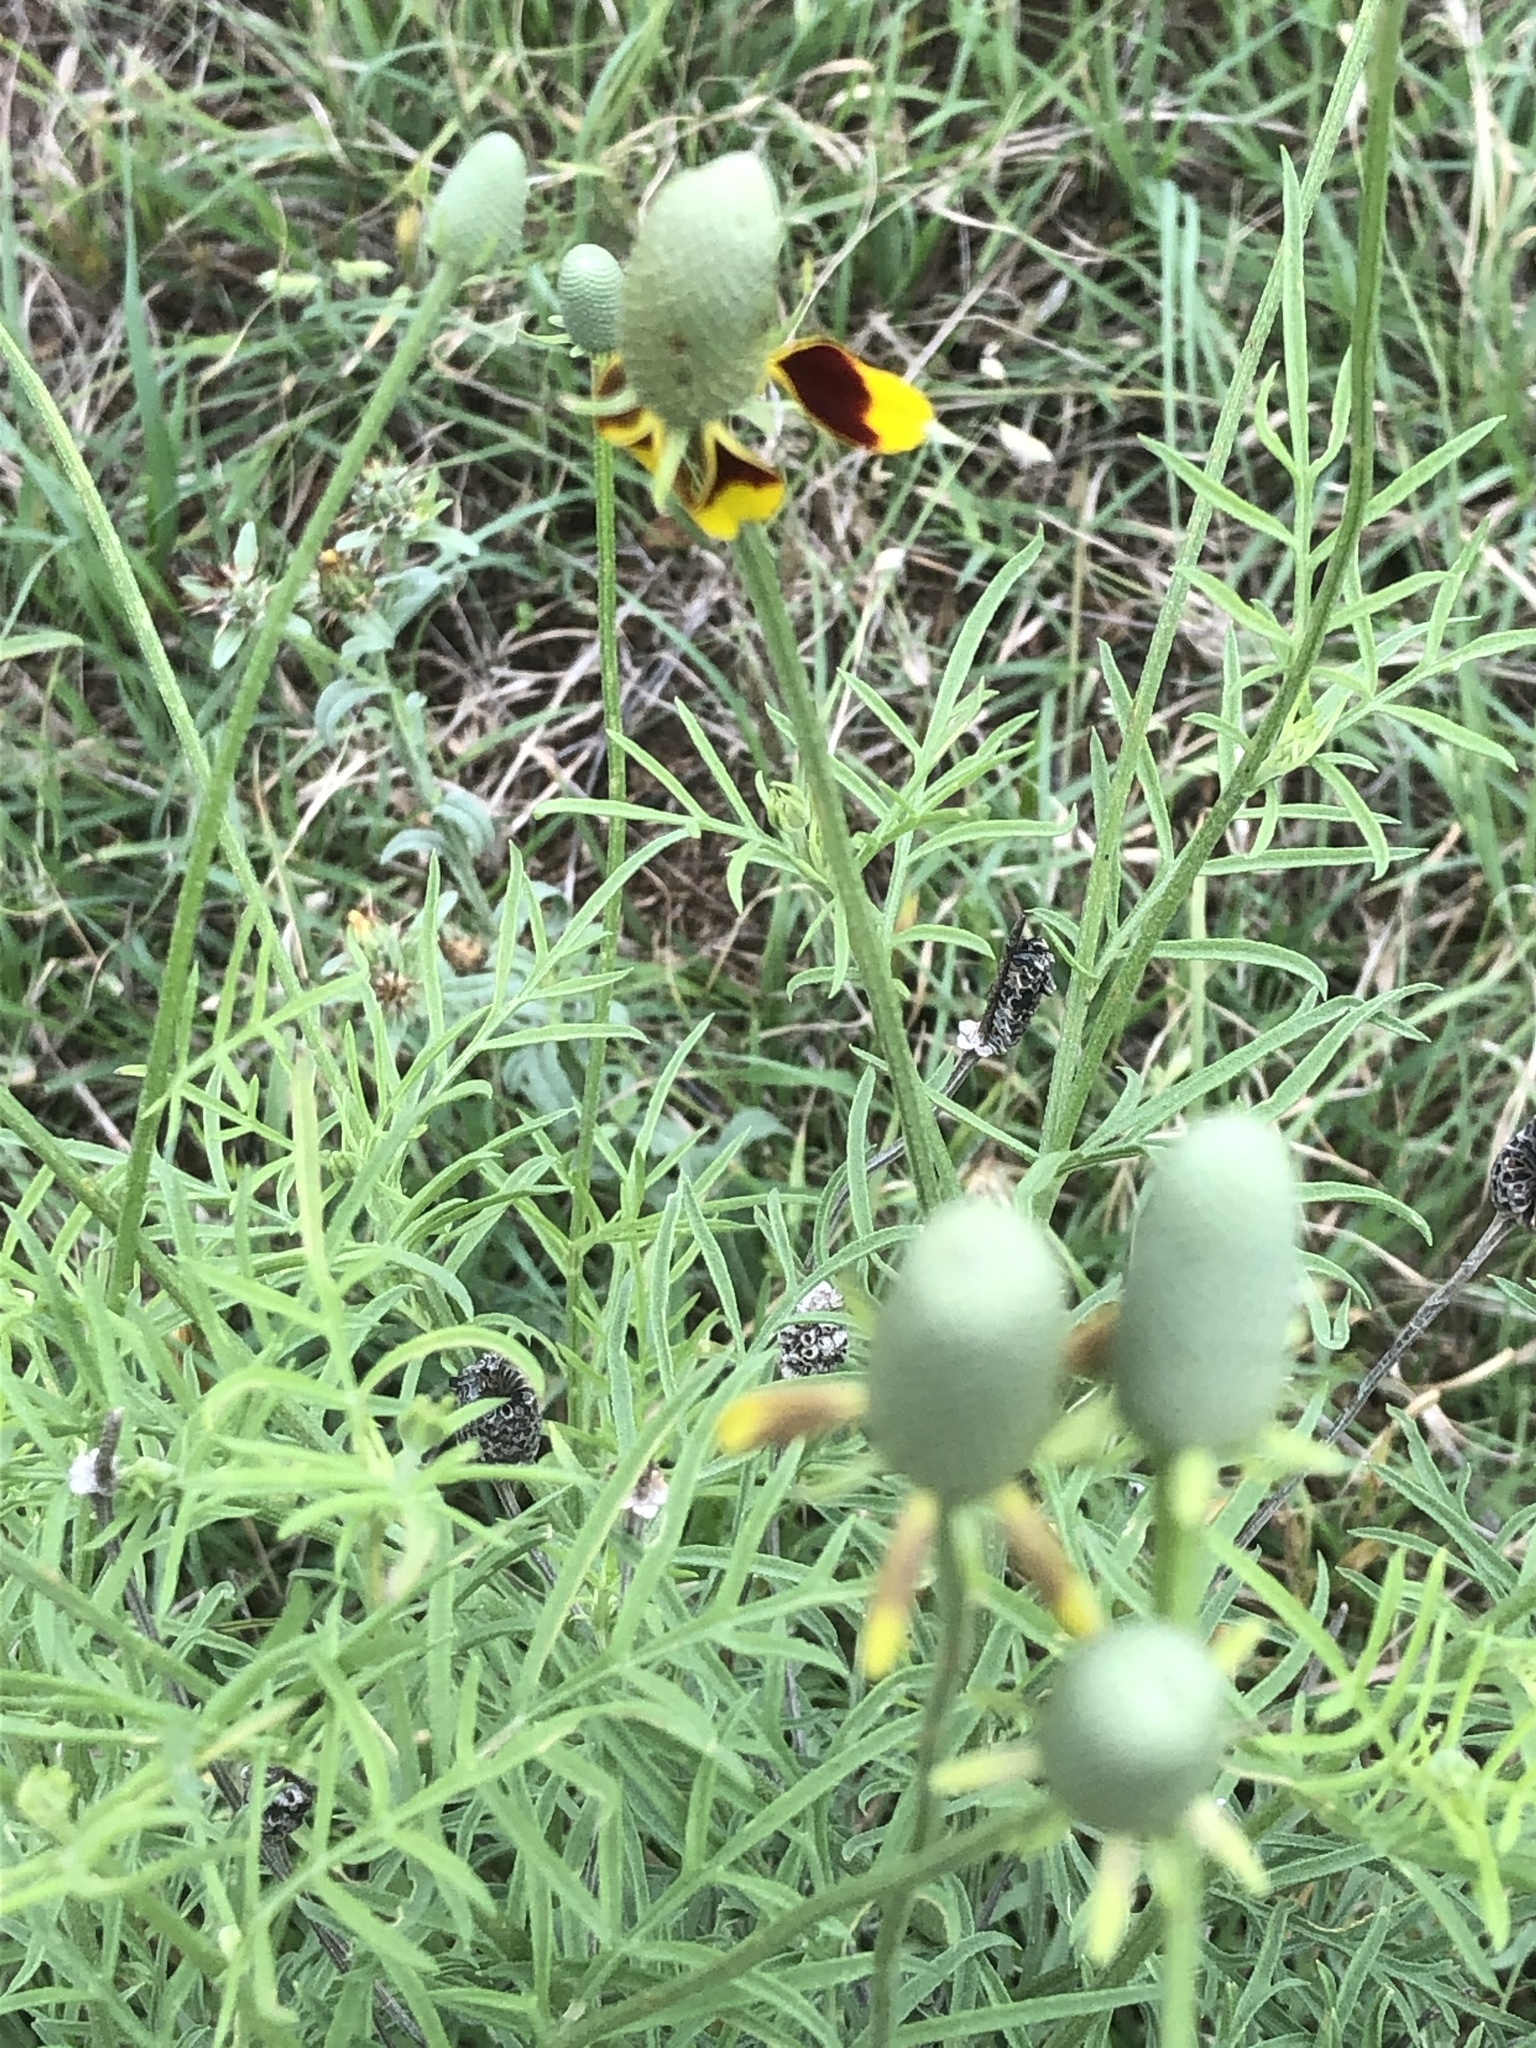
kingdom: Plantae
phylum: Tracheophyta
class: Magnoliopsida
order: Asterales
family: Asteraceae
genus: Ratibida
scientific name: Ratibida columnifera
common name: Prairie coneflower
